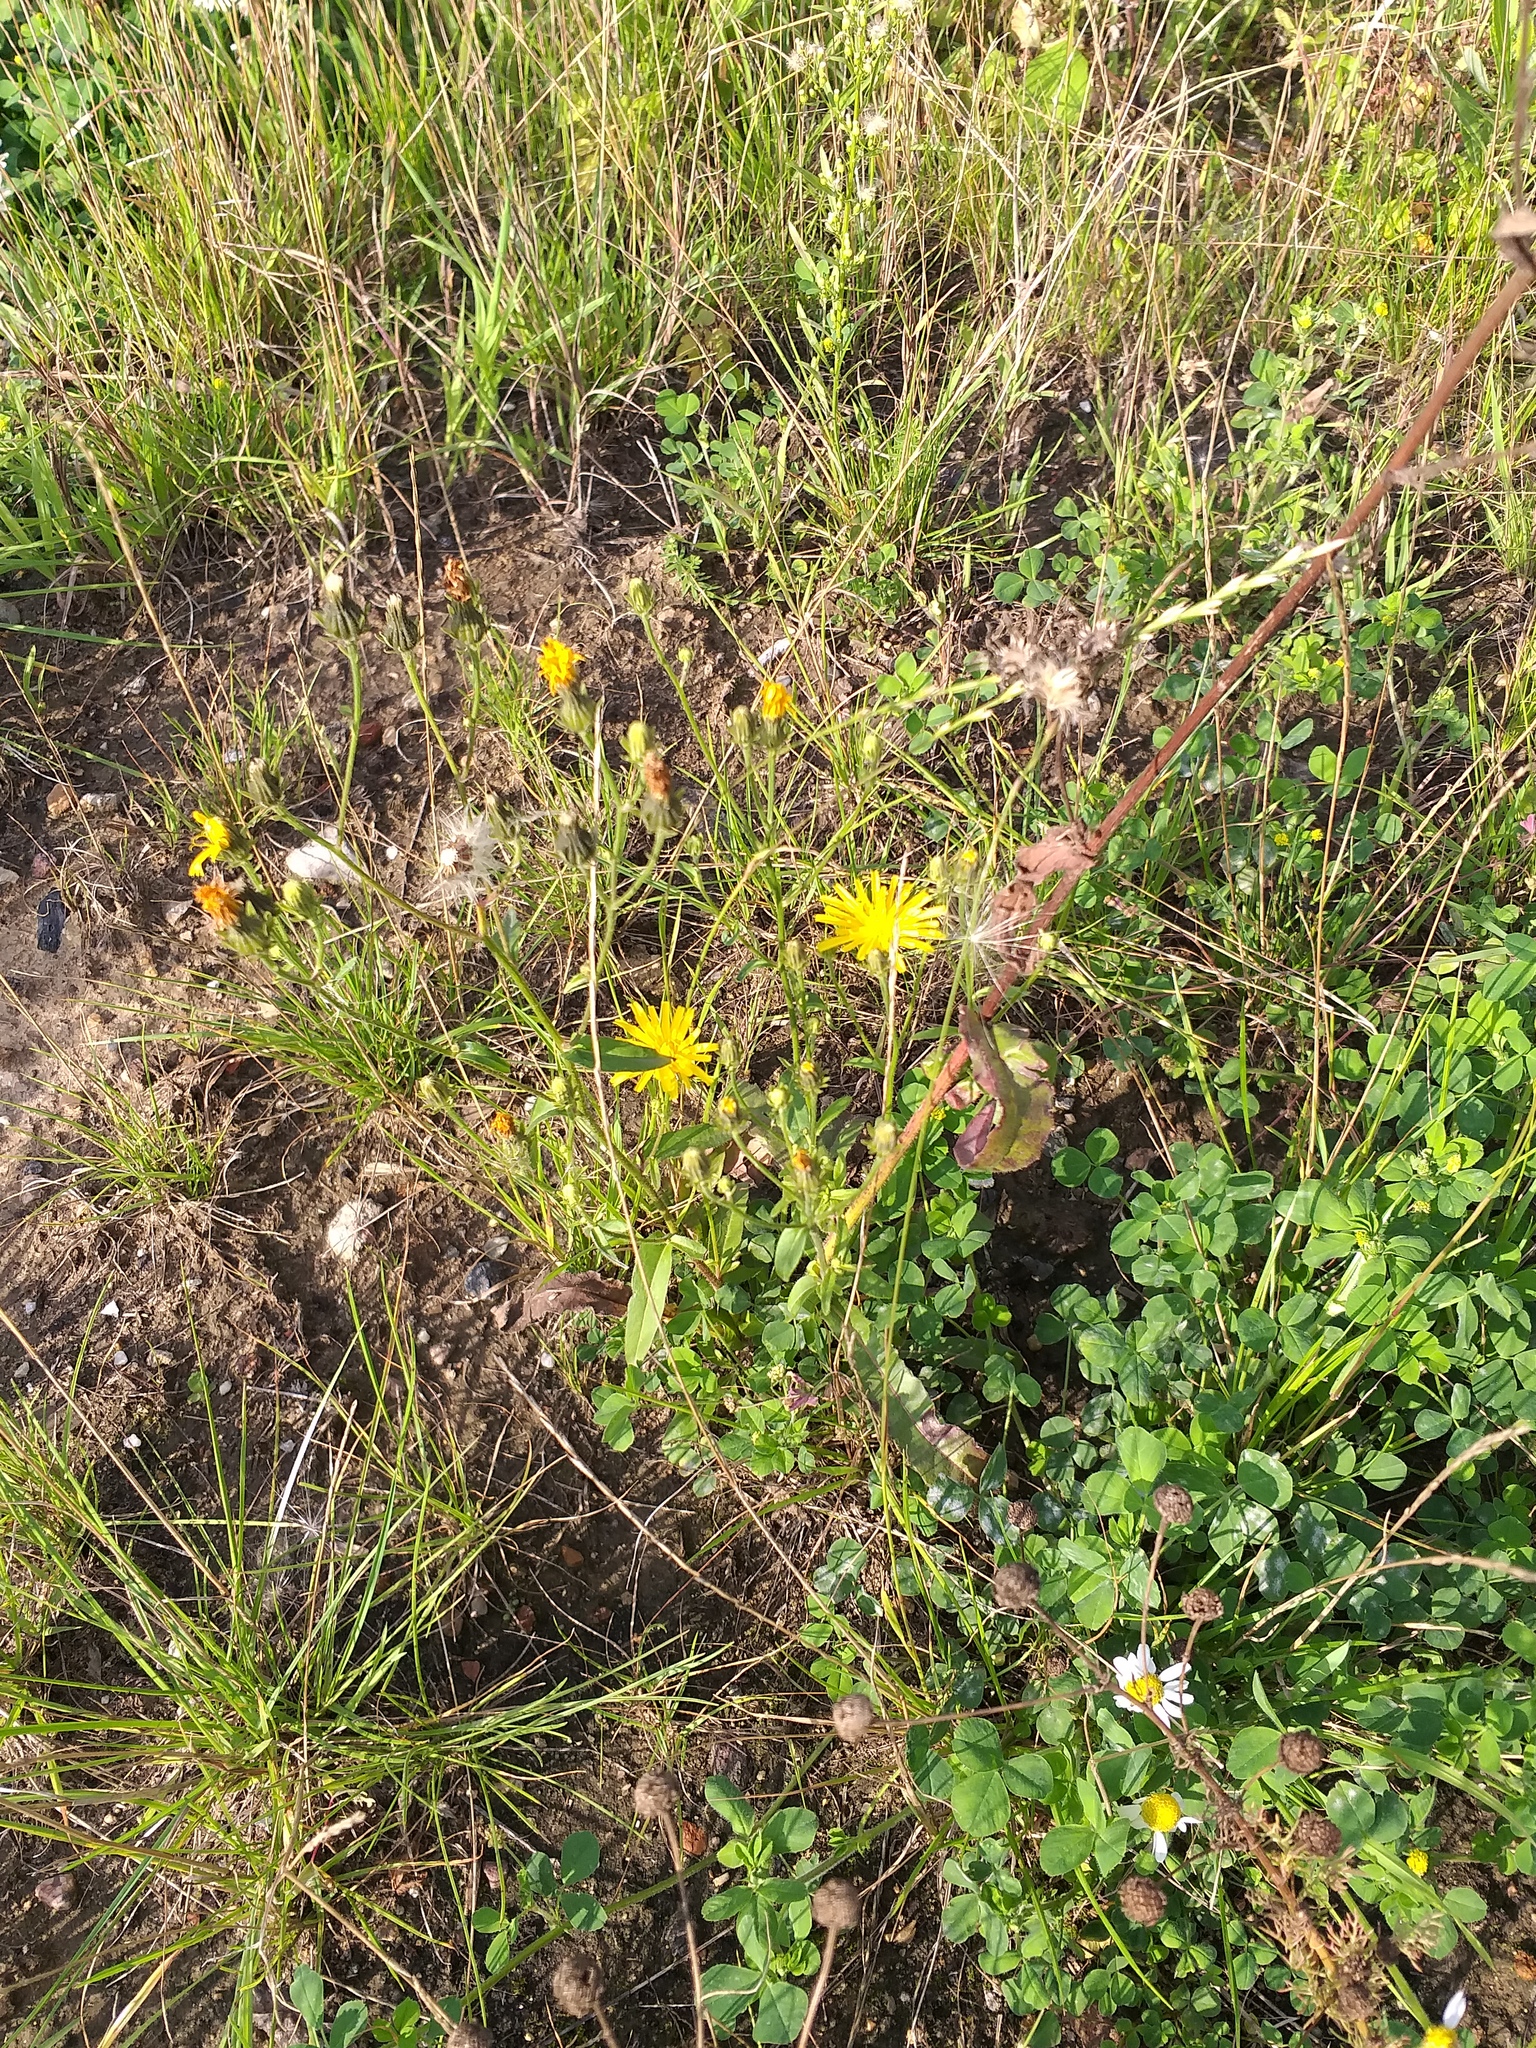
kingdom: Plantae
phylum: Tracheophyta
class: Magnoliopsida
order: Asterales
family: Asteraceae
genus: Picris
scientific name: Picris hieracioides
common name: Hawkweed oxtongue
